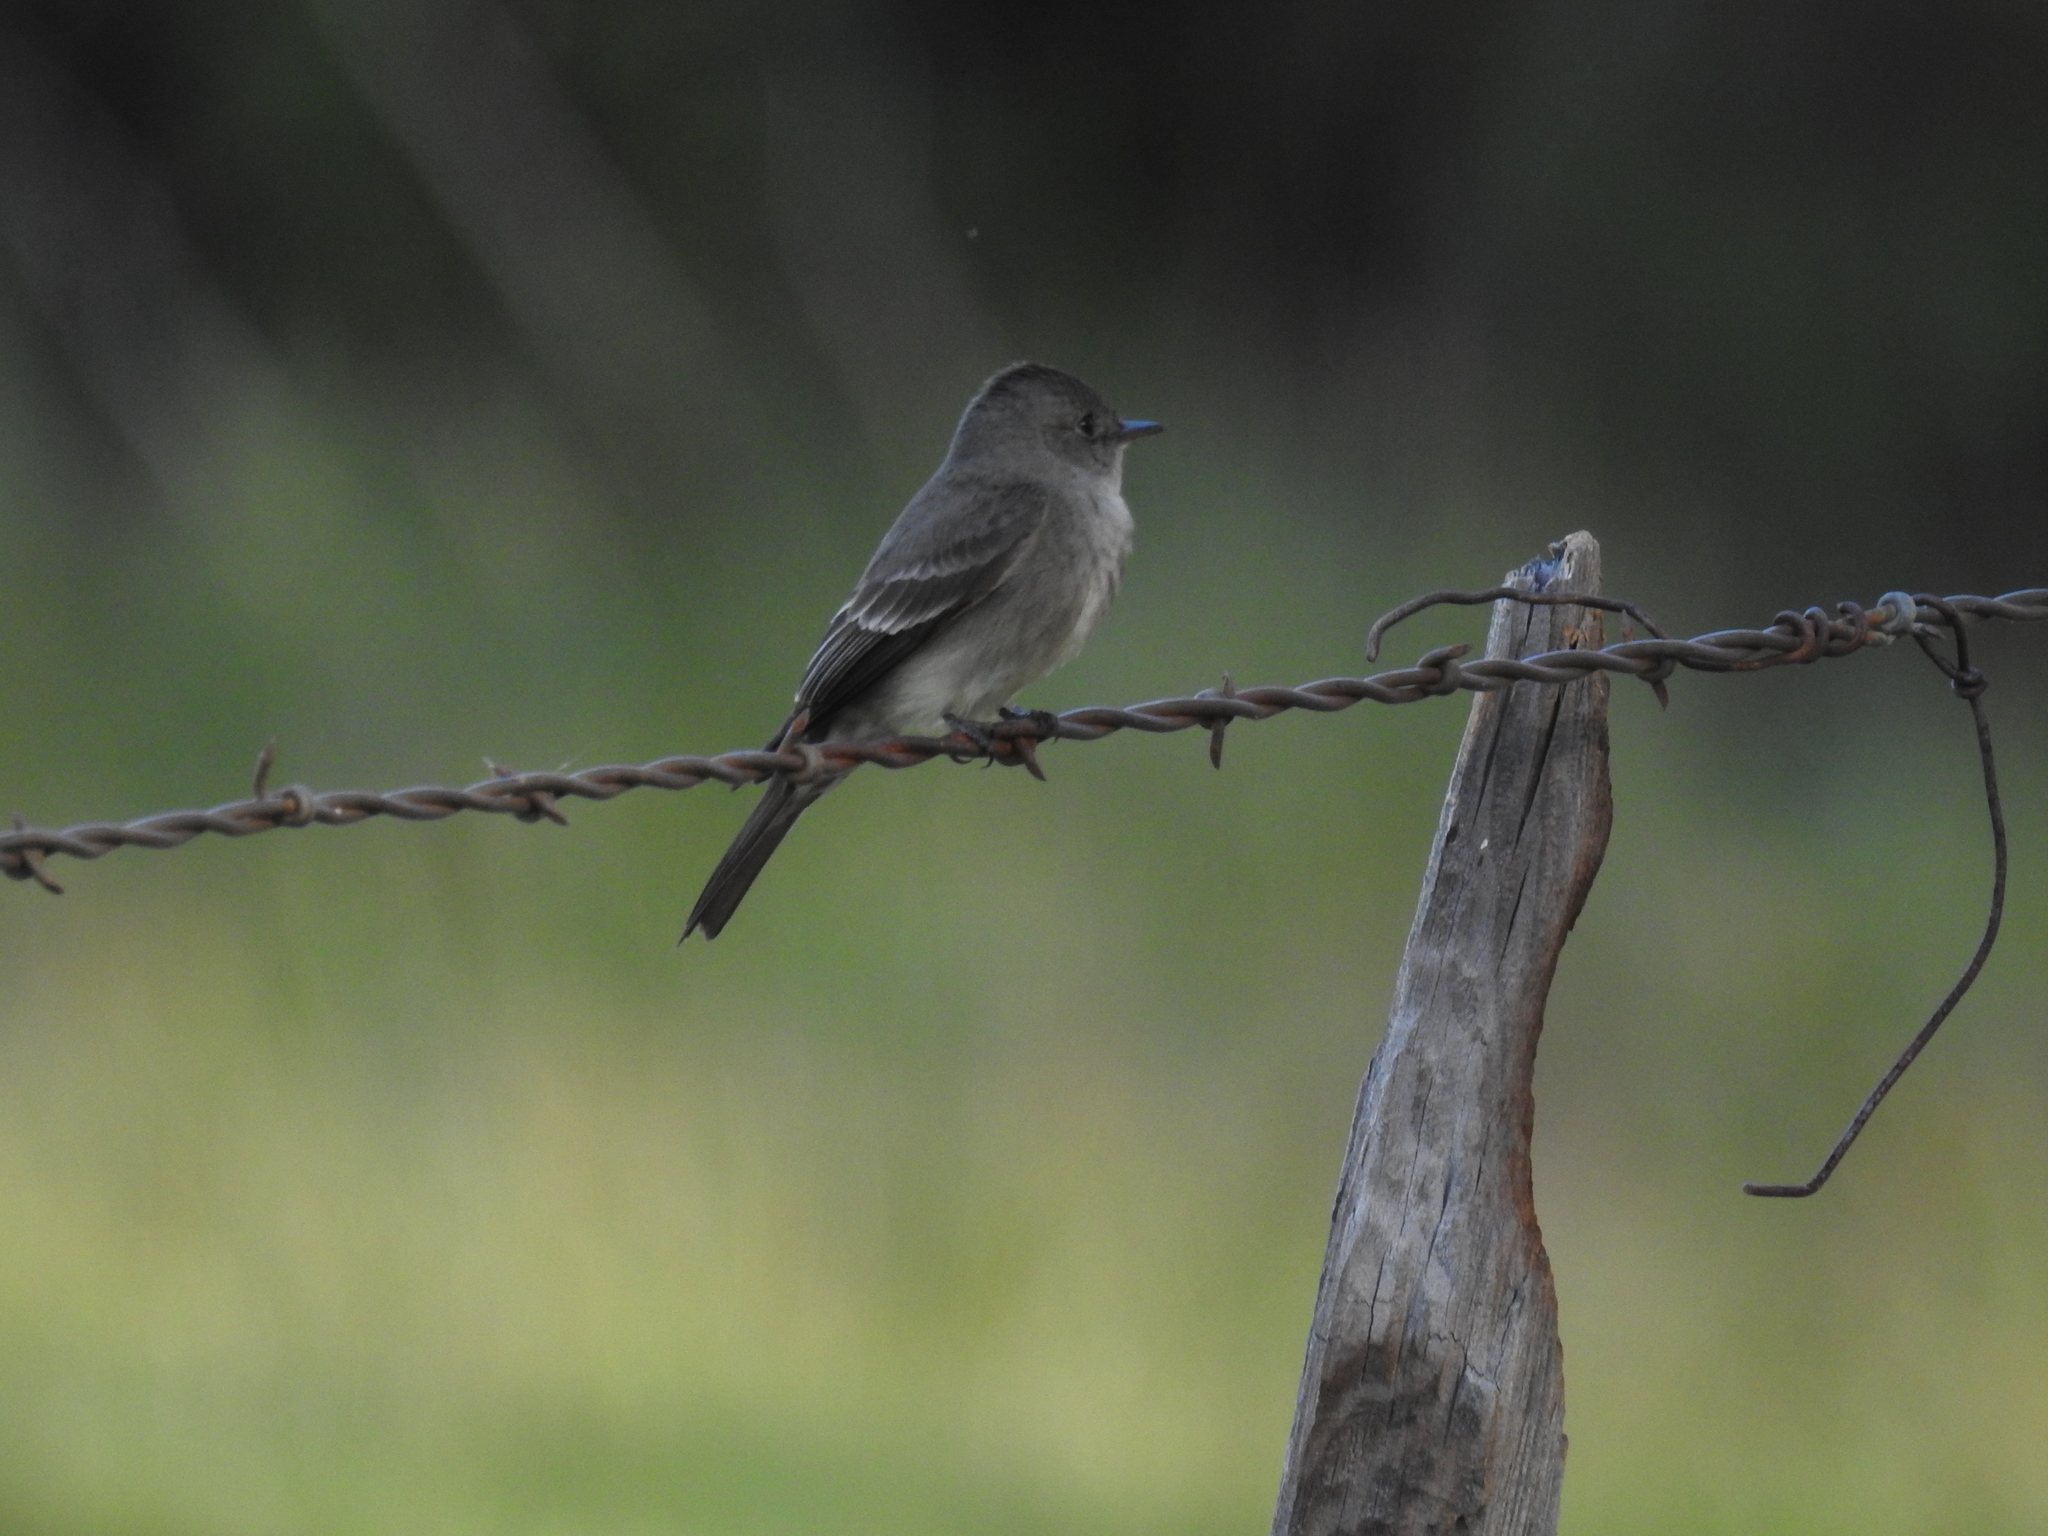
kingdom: Animalia
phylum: Chordata
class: Aves
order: Passeriformes
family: Tyrannidae
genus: Contopus
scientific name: Contopus sordidulus
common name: Western wood-pewee
